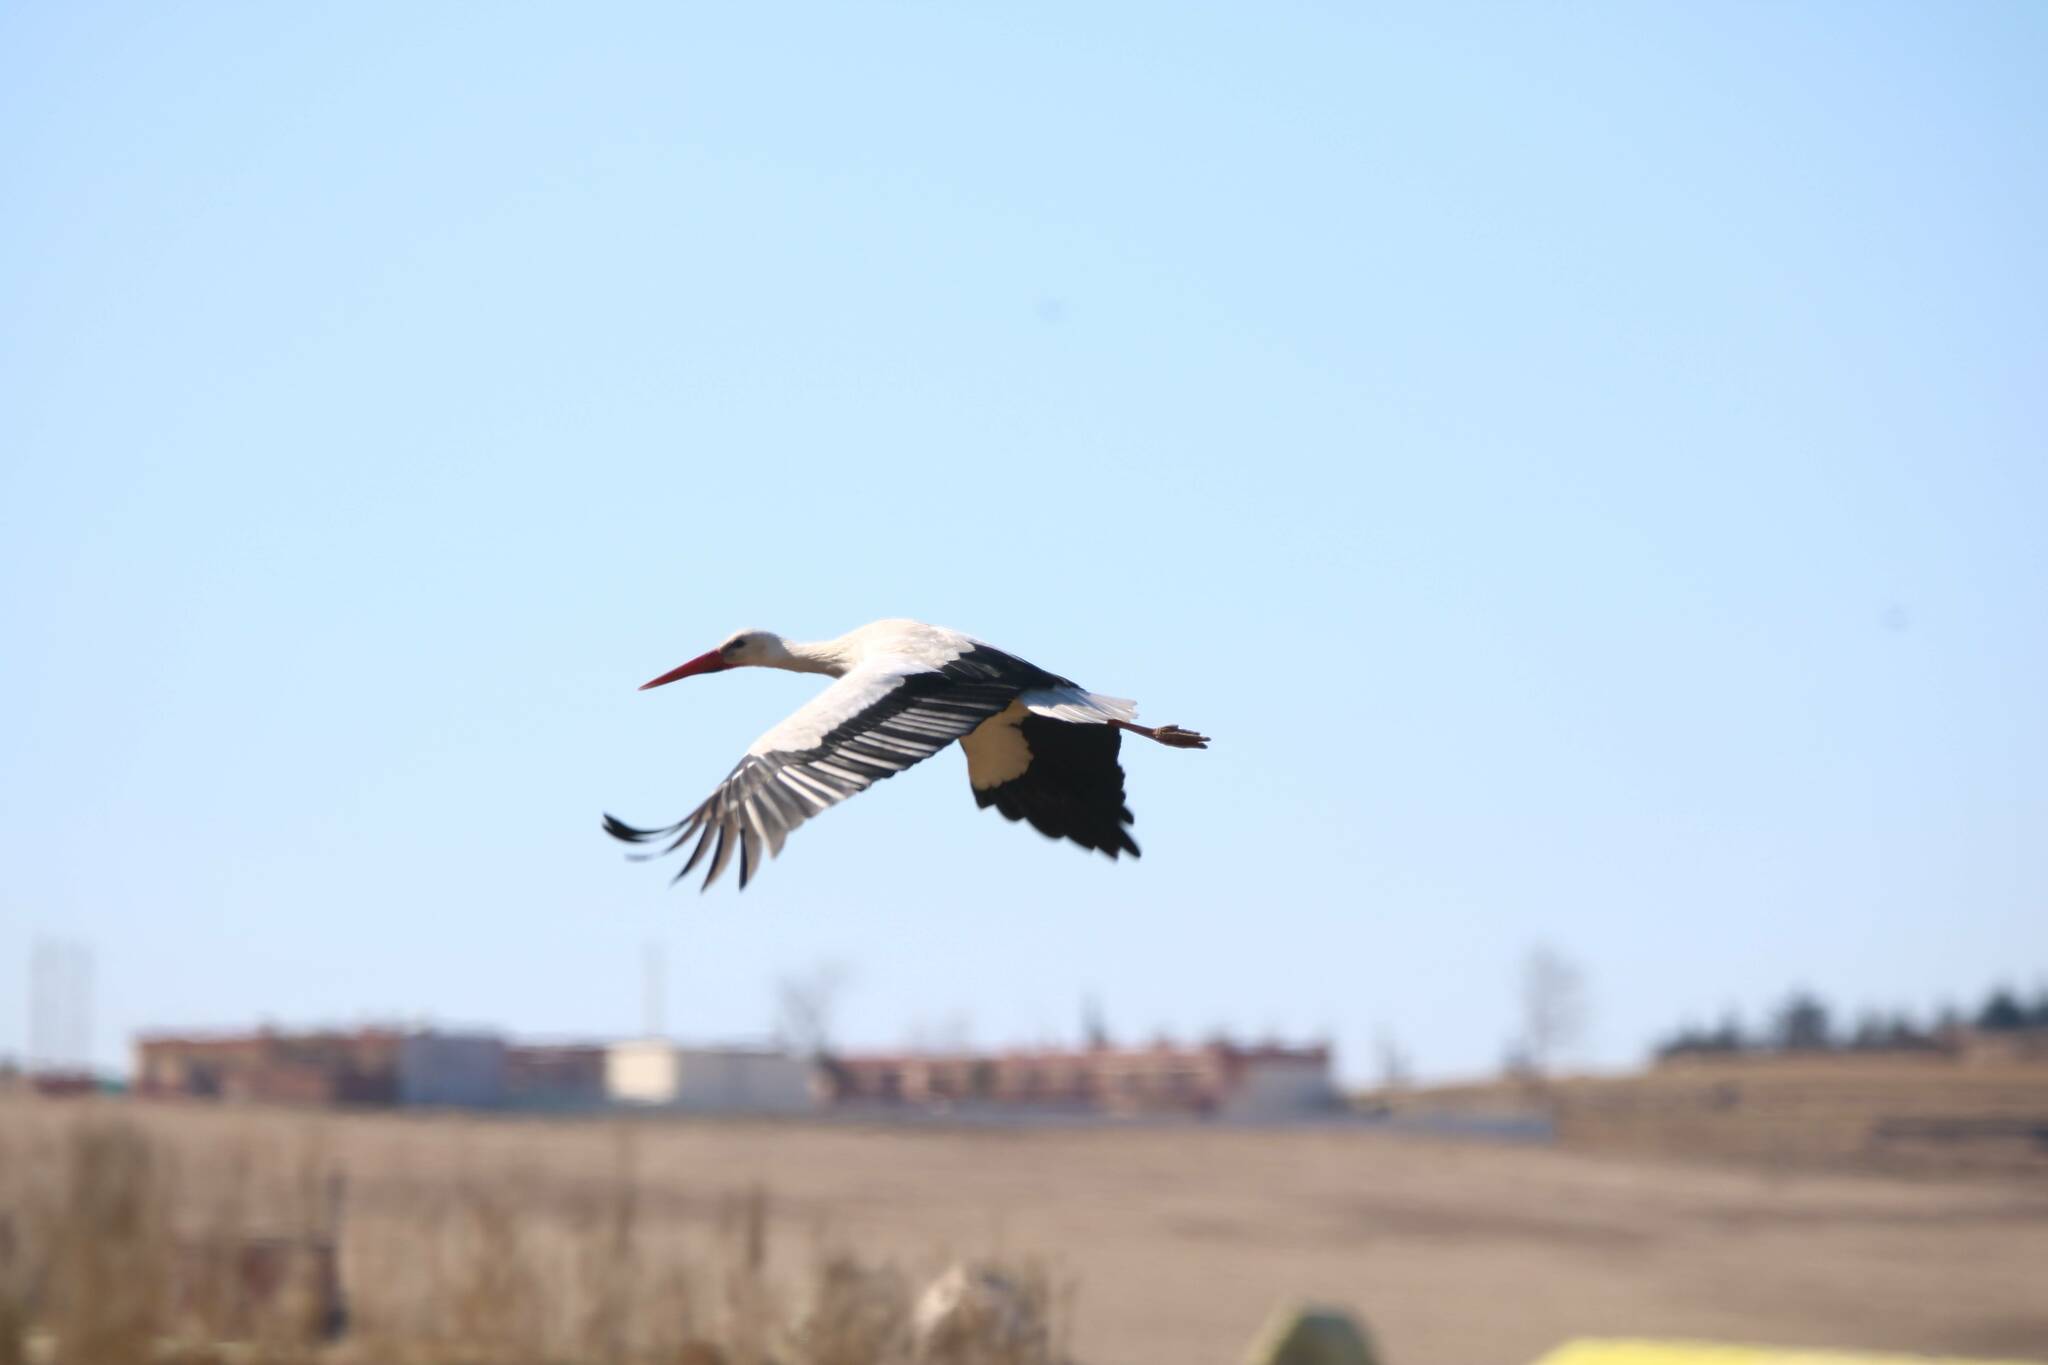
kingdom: Animalia
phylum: Chordata
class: Aves
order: Ciconiiformes
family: Ciconiidae
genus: Ciconia
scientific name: Ciconia ciconia
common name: White stork
